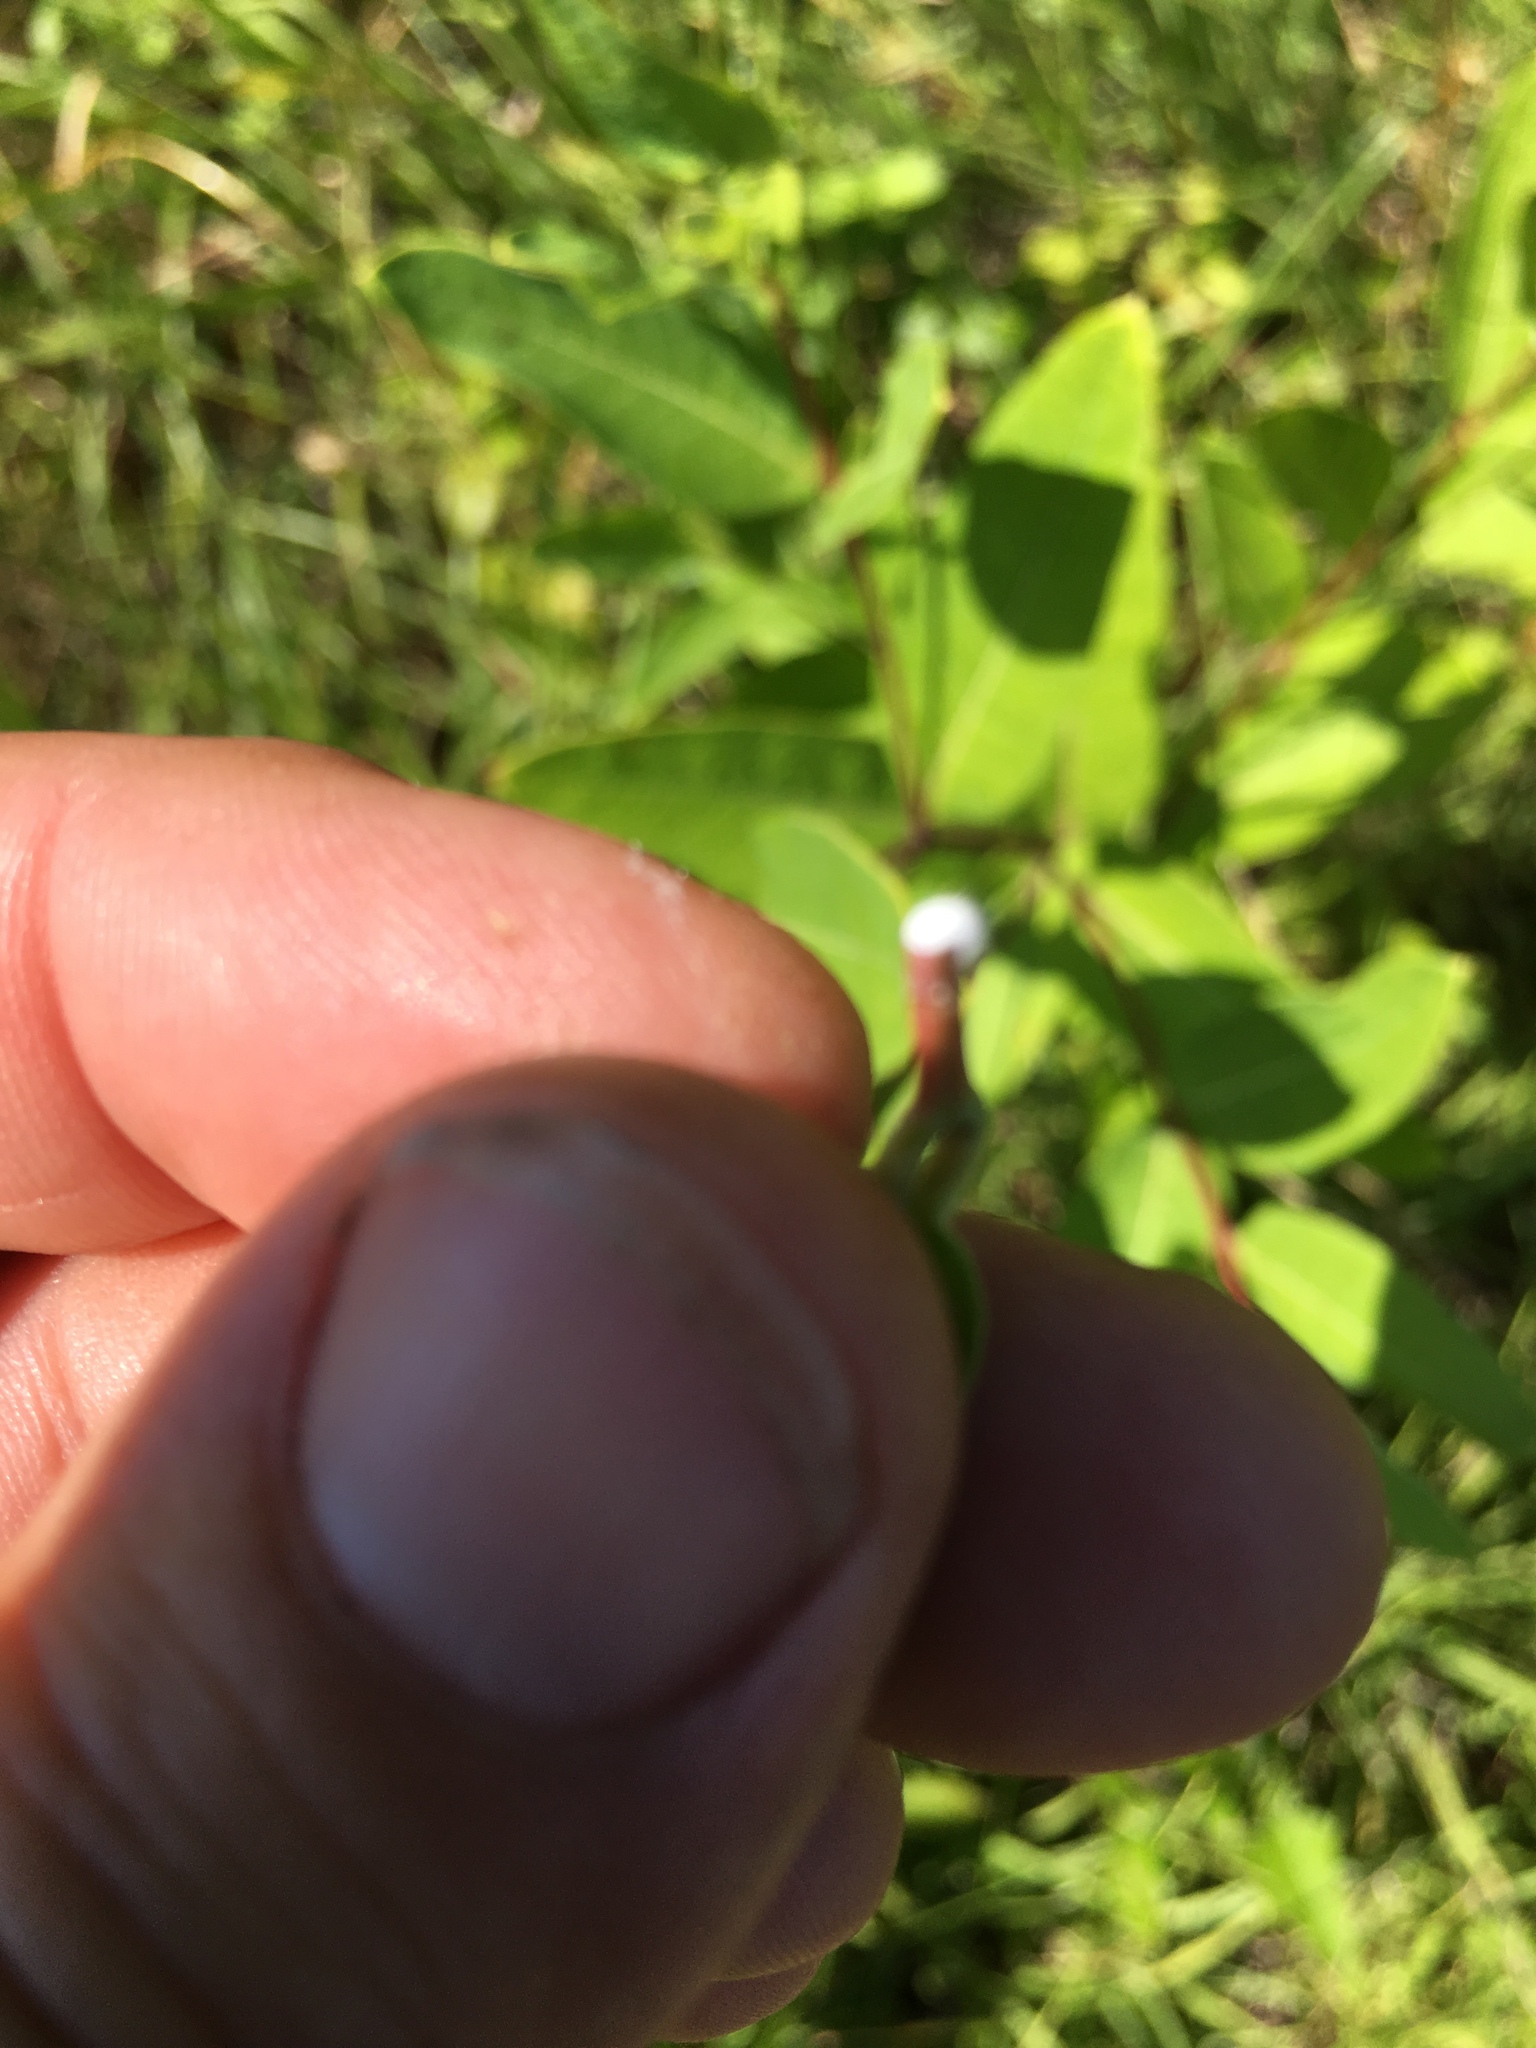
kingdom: Plantae
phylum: Tracheophyta
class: Magnoliopsida
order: Gentianales
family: Apocynaceae
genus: Apocynum
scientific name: Apocynum cannabinum
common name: Hemp dogbane
